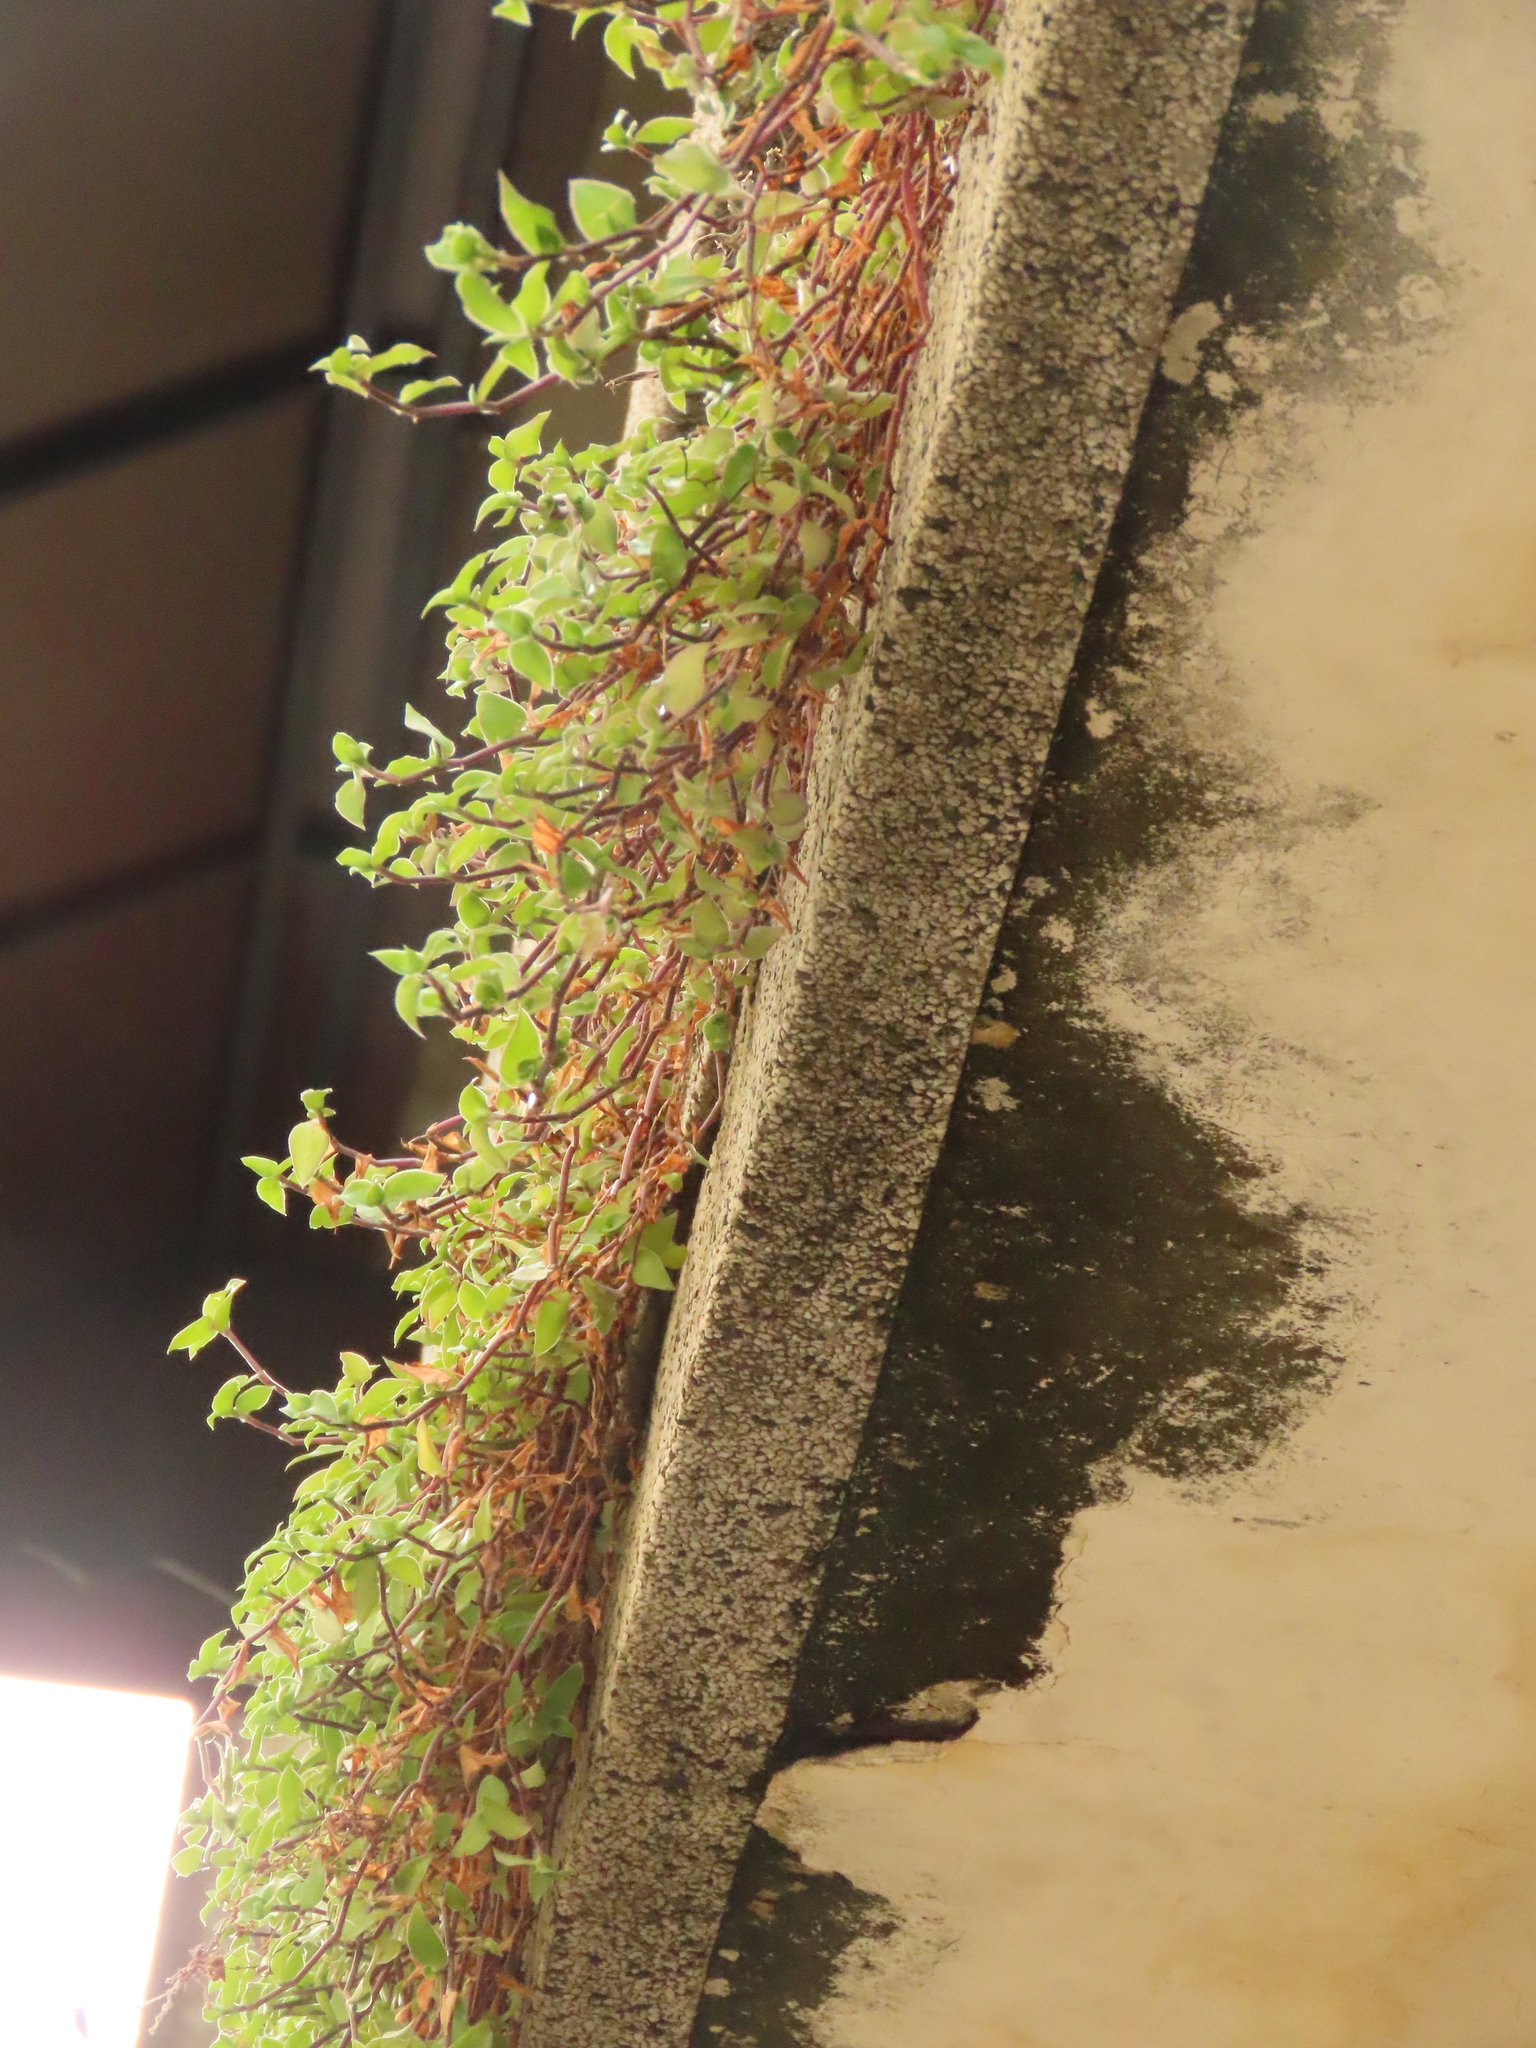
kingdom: Plantae
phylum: Tracheophyta
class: Liliopsida
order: Commelinales
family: Commelinaceae
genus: Callisia
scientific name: Callisia repens
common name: Creeping inchplant
